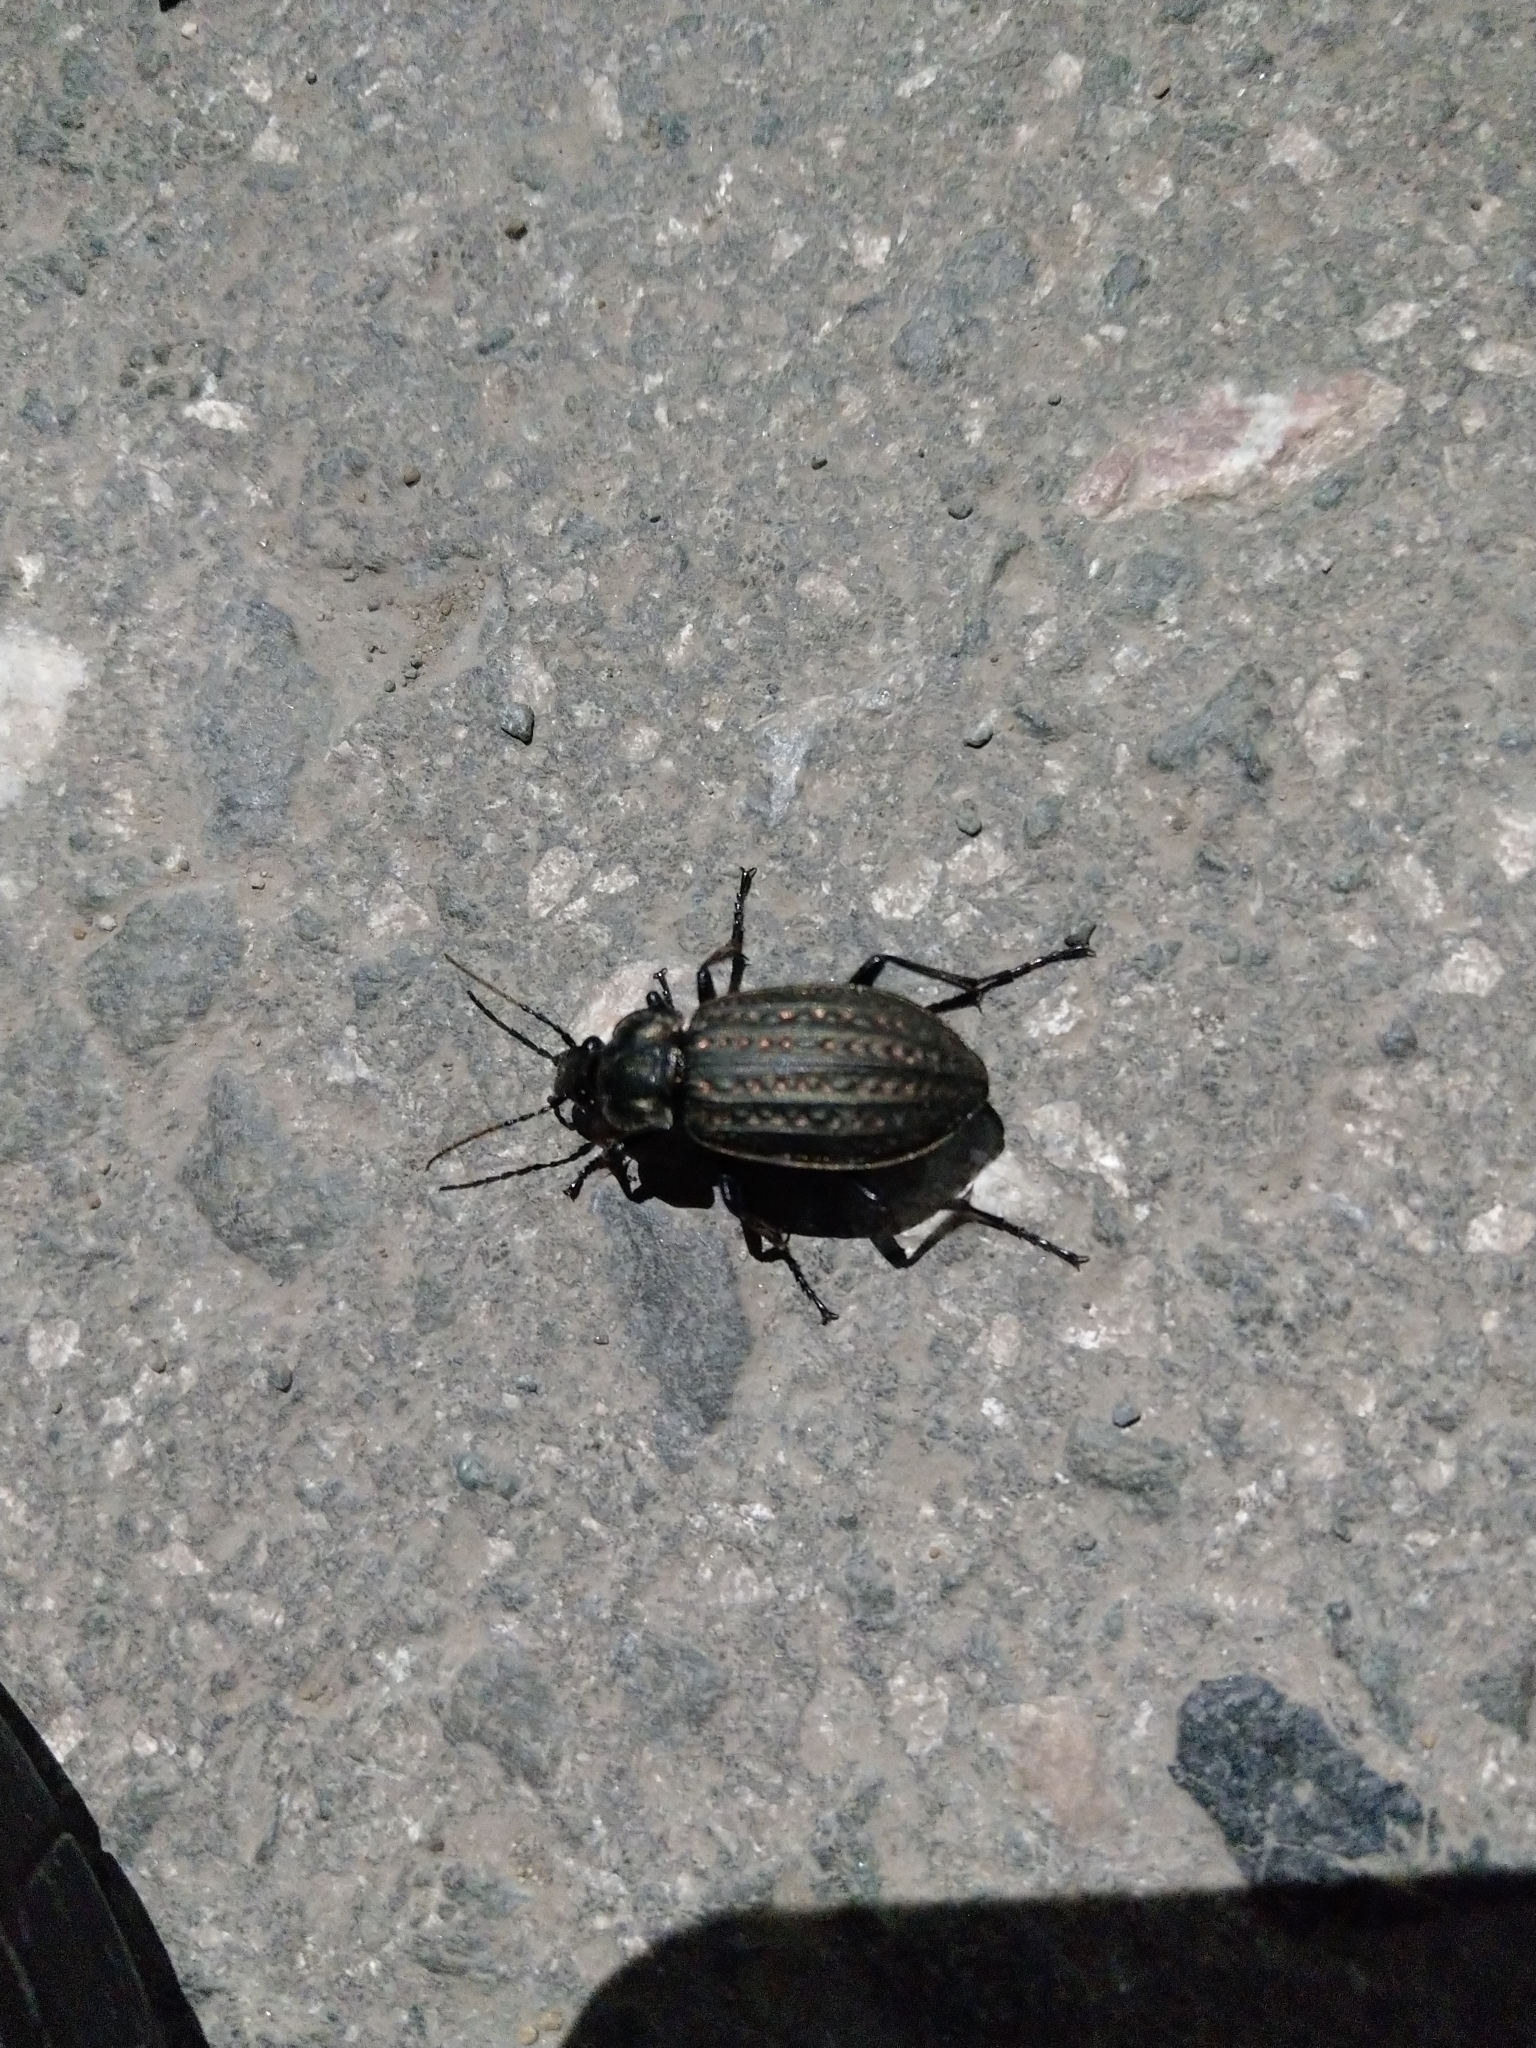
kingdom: Animalia
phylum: Arthropoda
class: Insecta
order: Coleoptera
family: Carabidae
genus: Carabus
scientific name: Carabus clatratus
